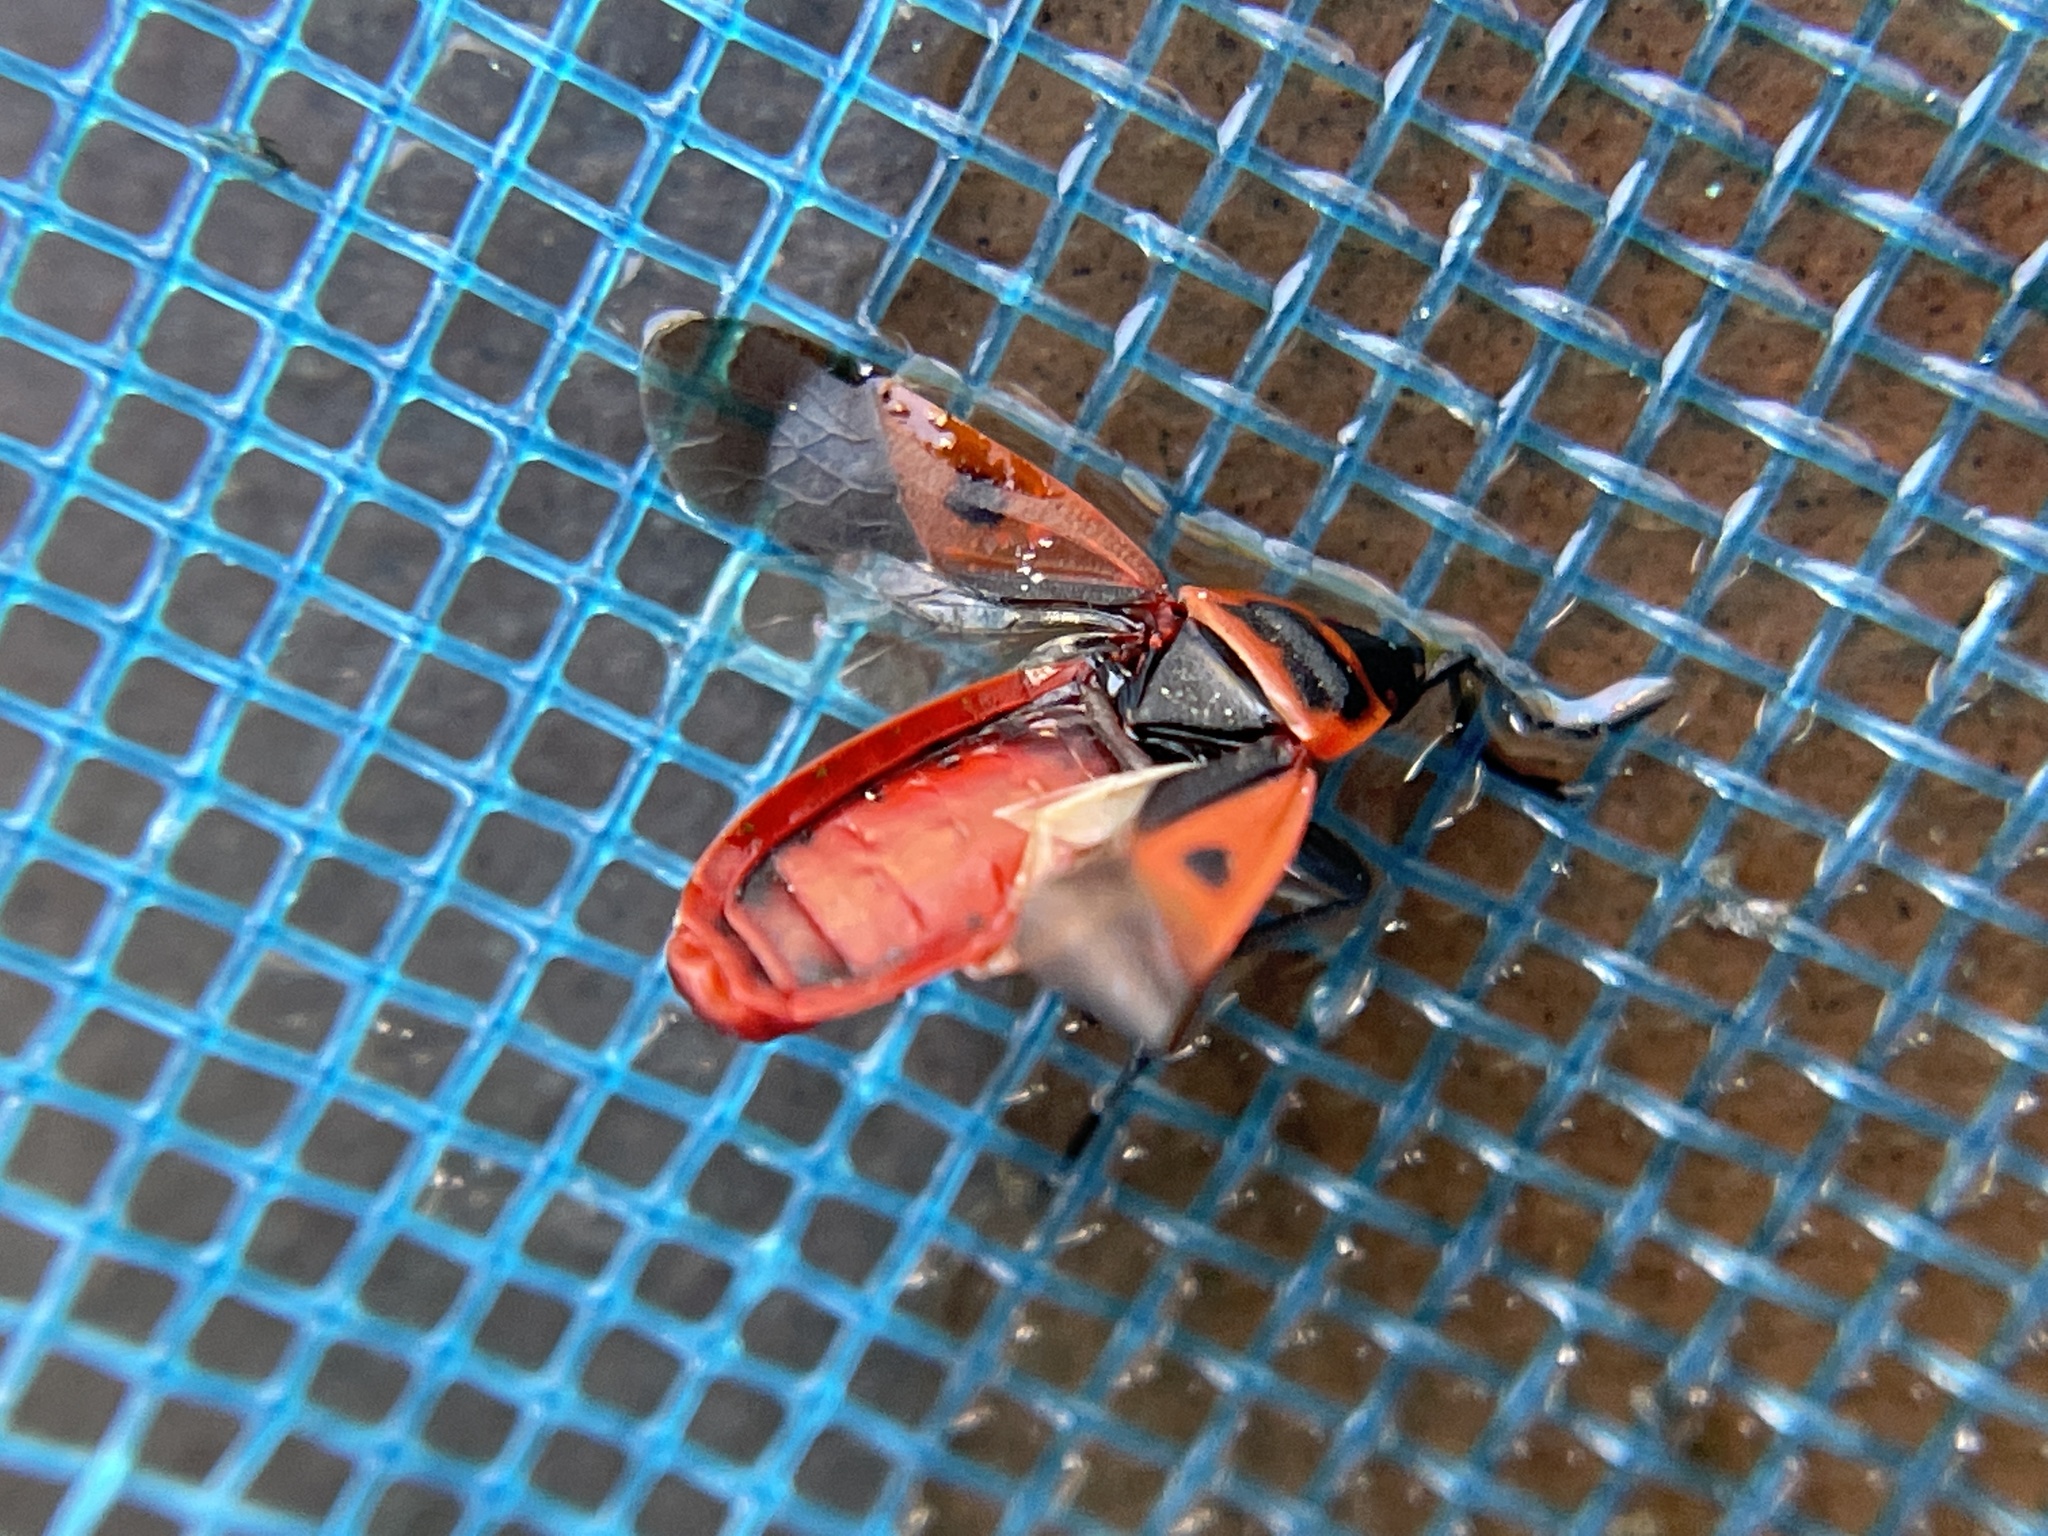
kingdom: Animalia
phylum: Arthropoda
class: Insecta
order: Hemiptera
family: Pyrrhocoridae
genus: Scantius
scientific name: Scantius aegyptius
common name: Red bug
